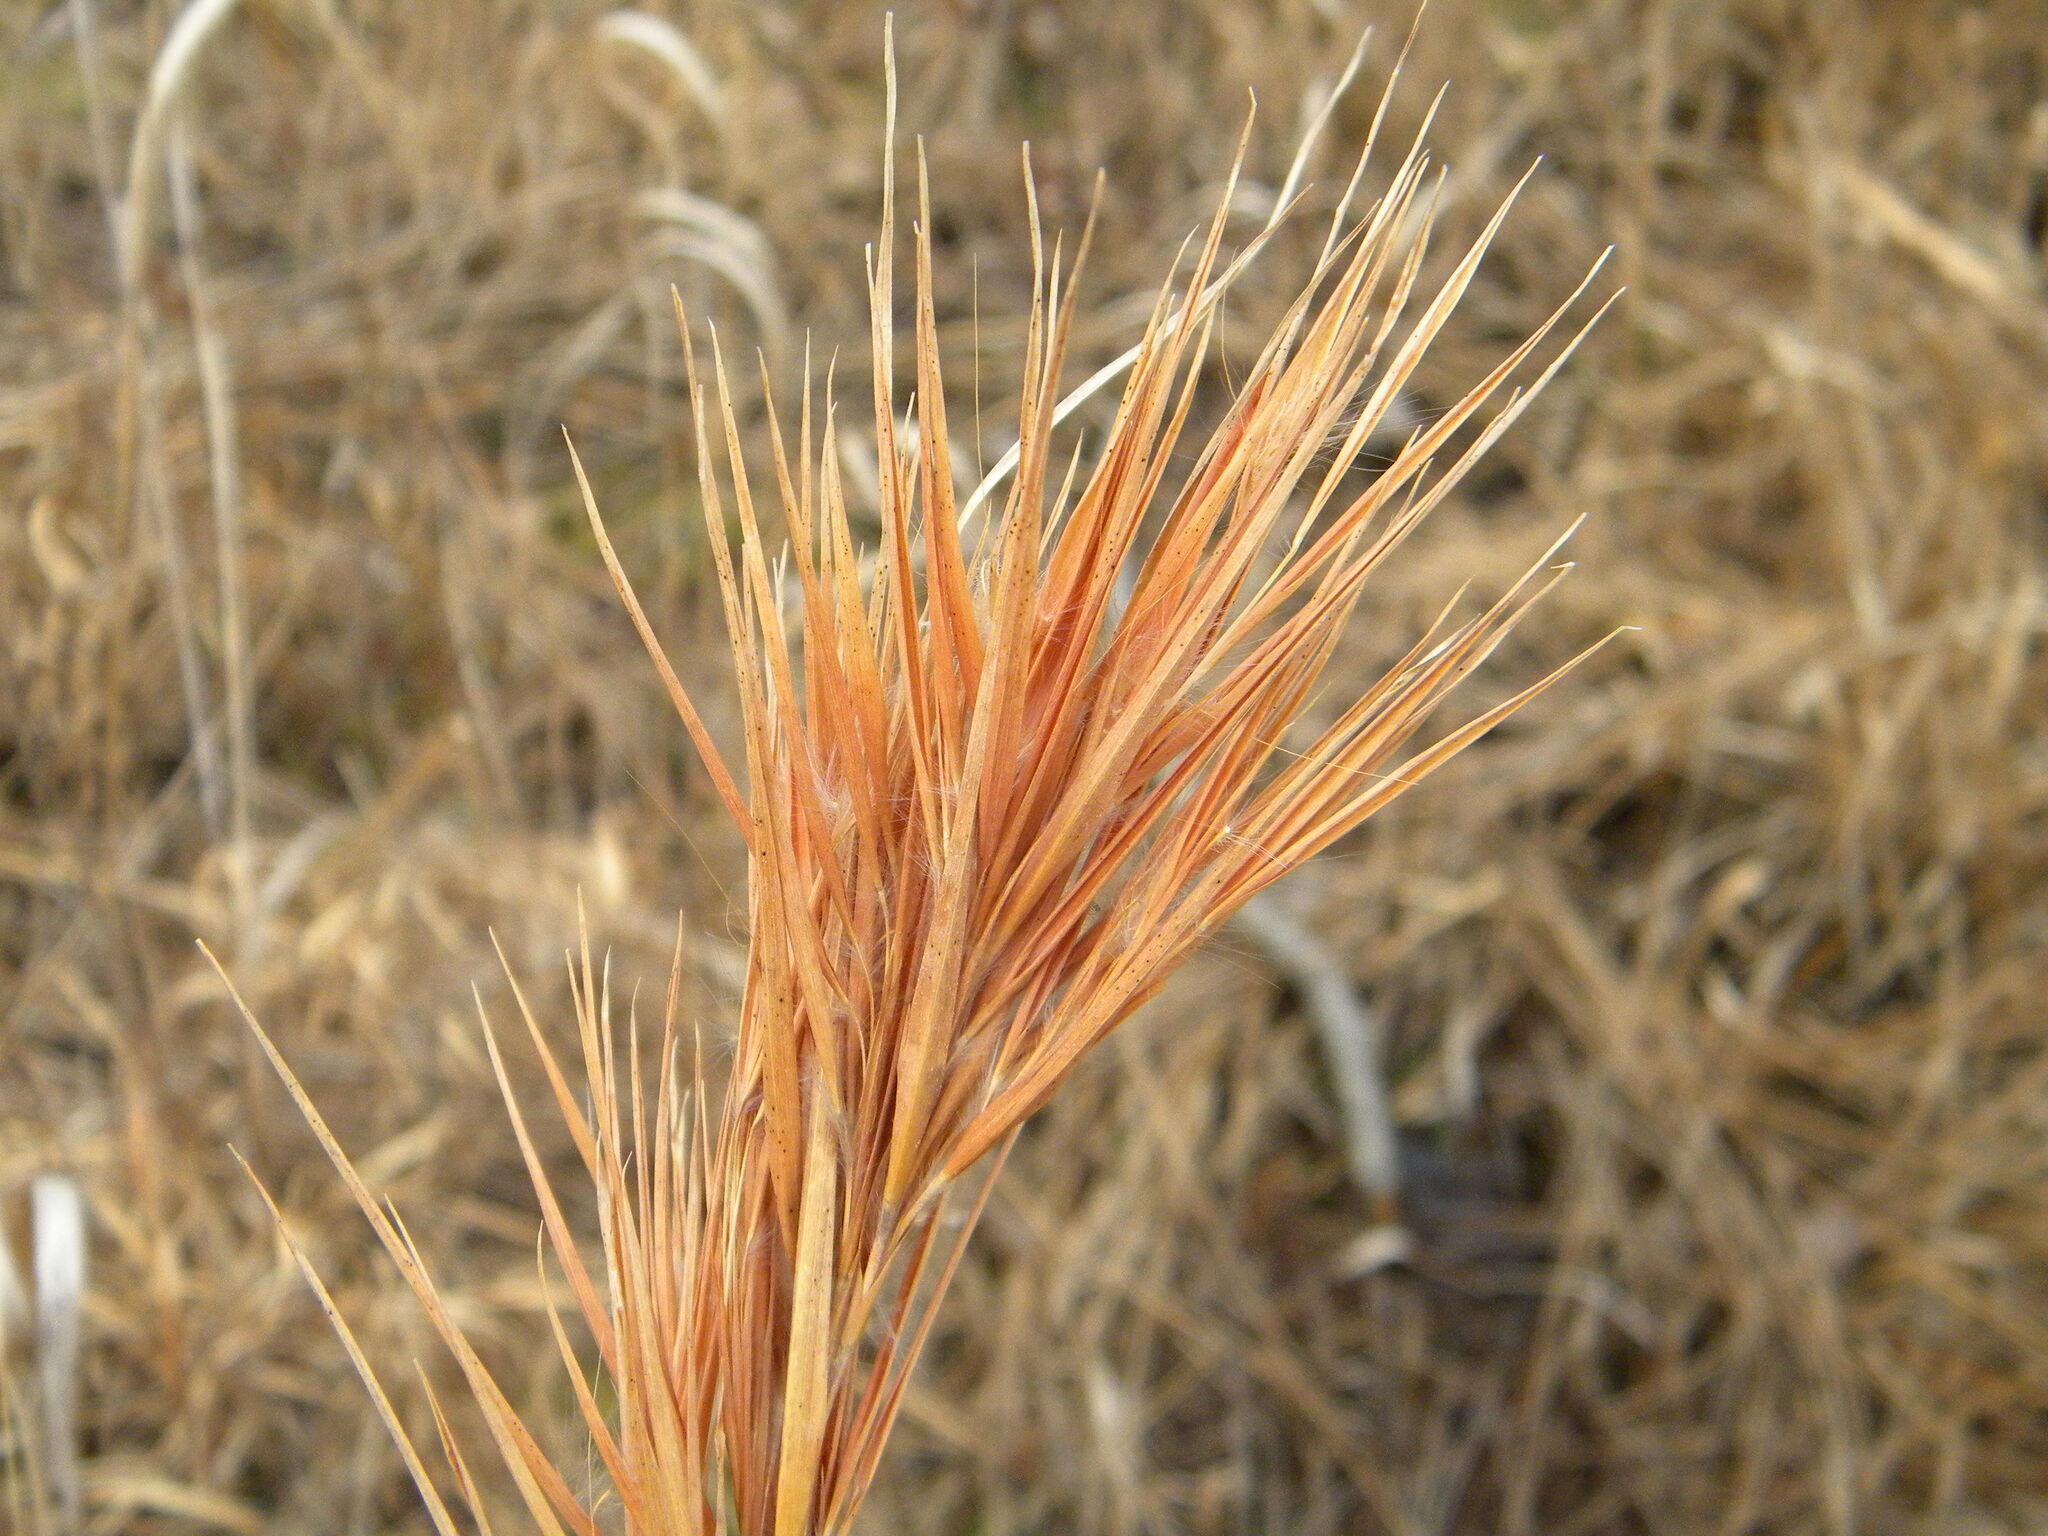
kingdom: Plantae
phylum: Tracheophyta
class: Liliopsida
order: Poales
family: Poaceae
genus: Andropogon
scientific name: Andropogon glomeratus
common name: Bushy beard grass
